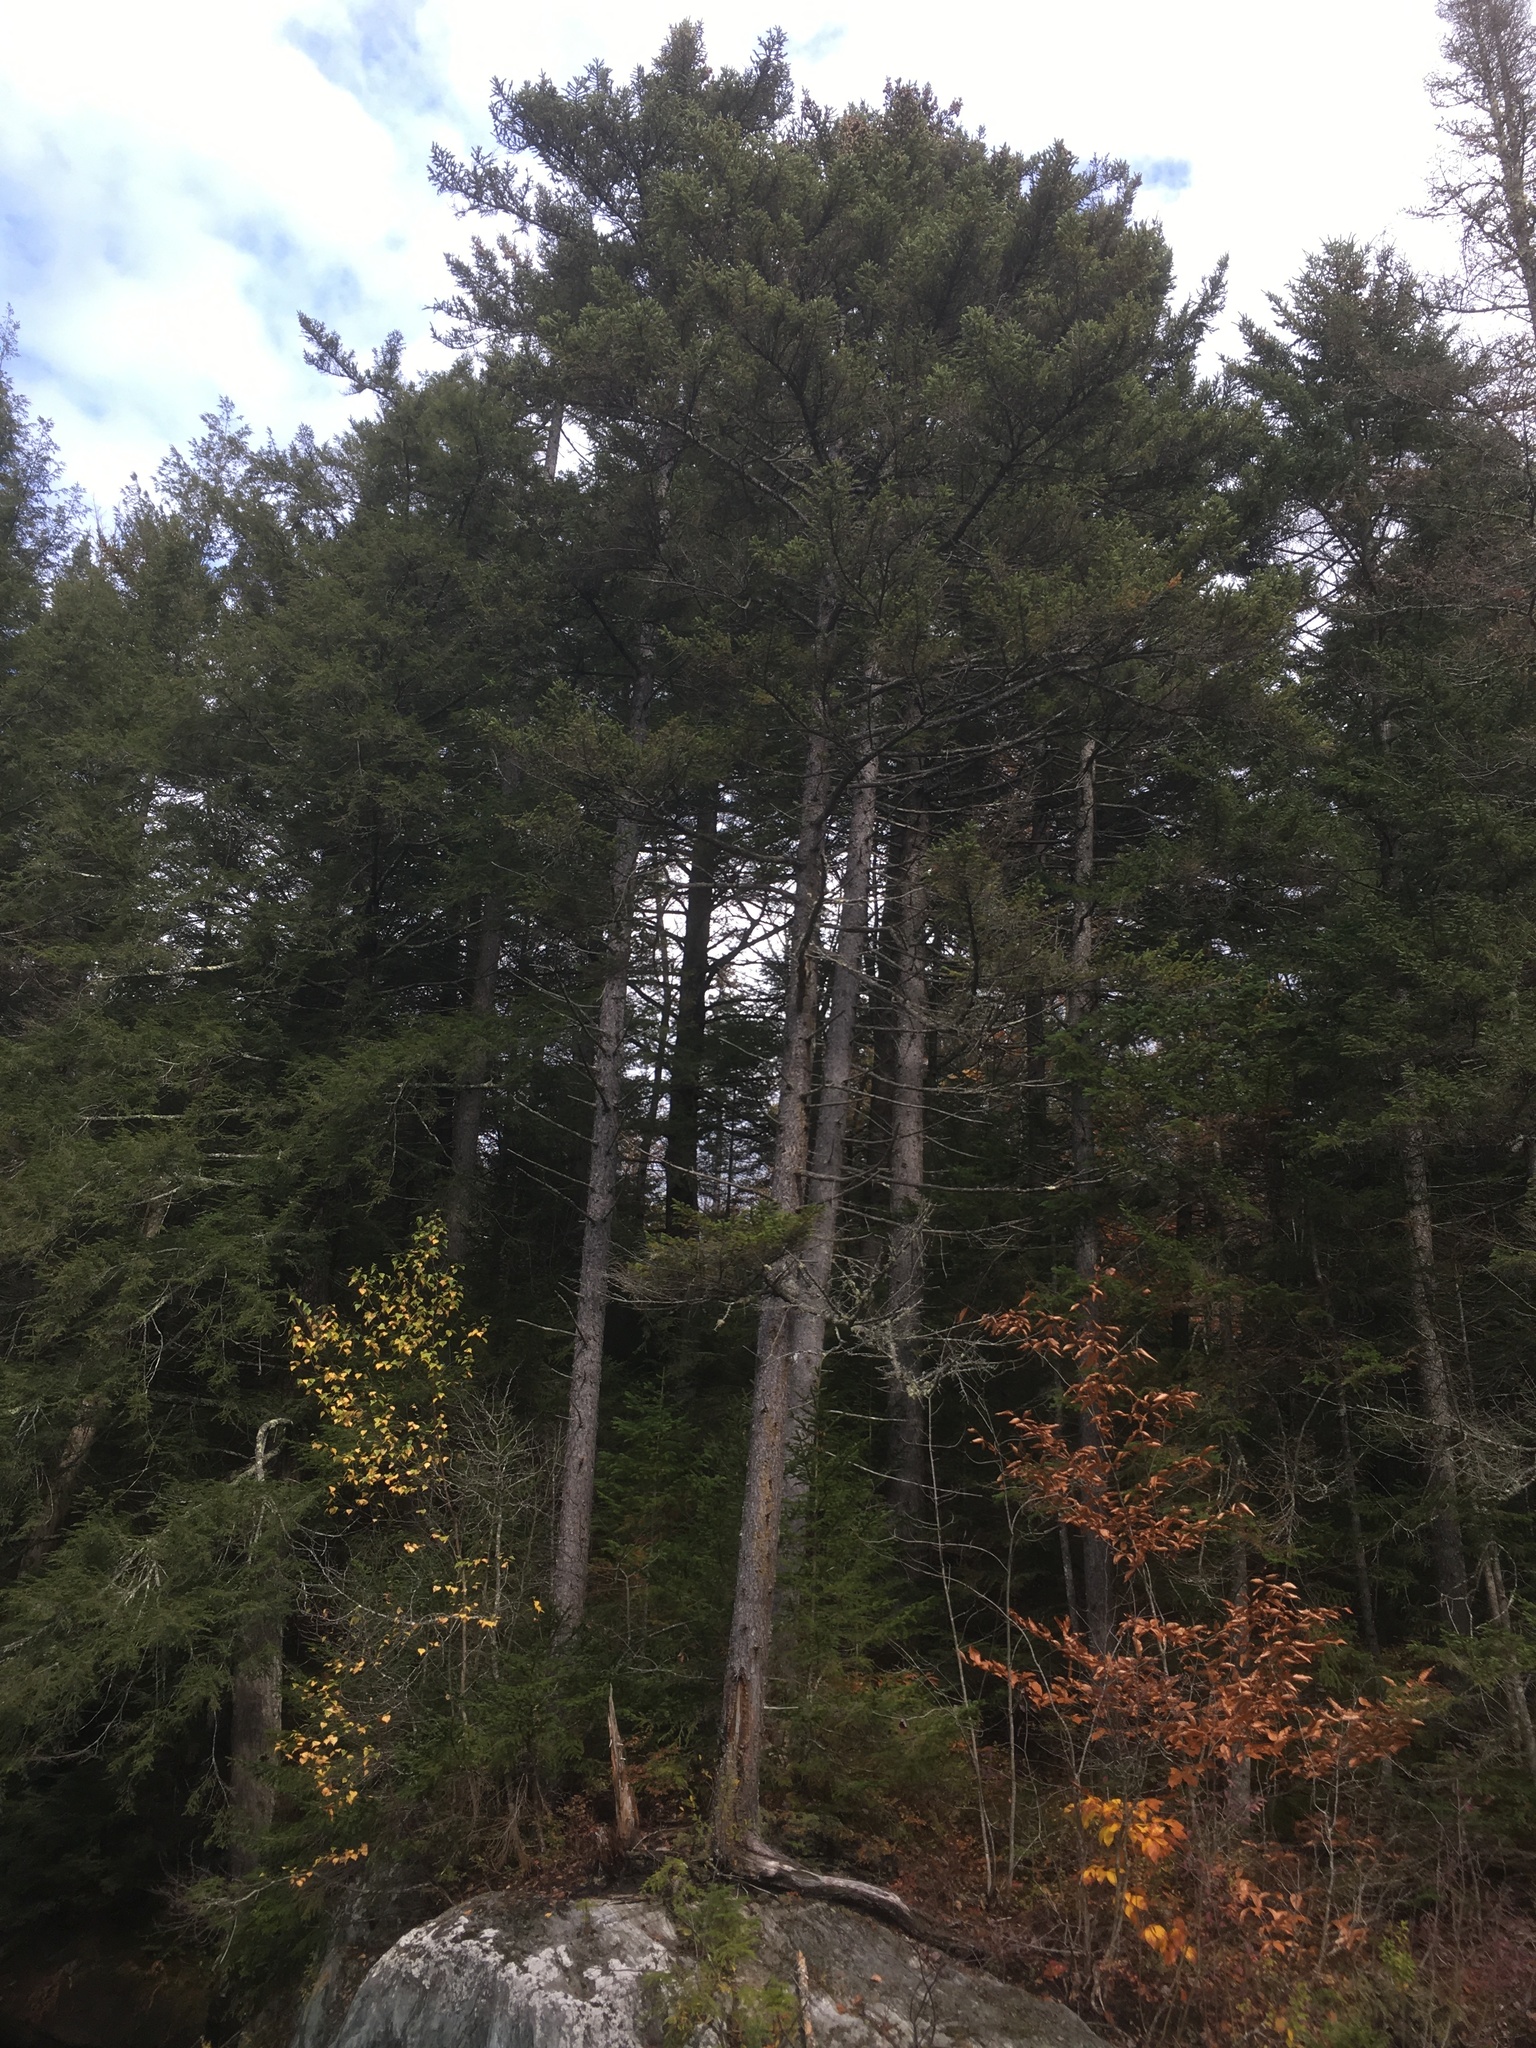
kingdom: Plantae
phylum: Tracheophyta
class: Pinopsida
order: Pinales
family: Pinaceae
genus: Picea
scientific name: Picea rubens
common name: Red spruce
